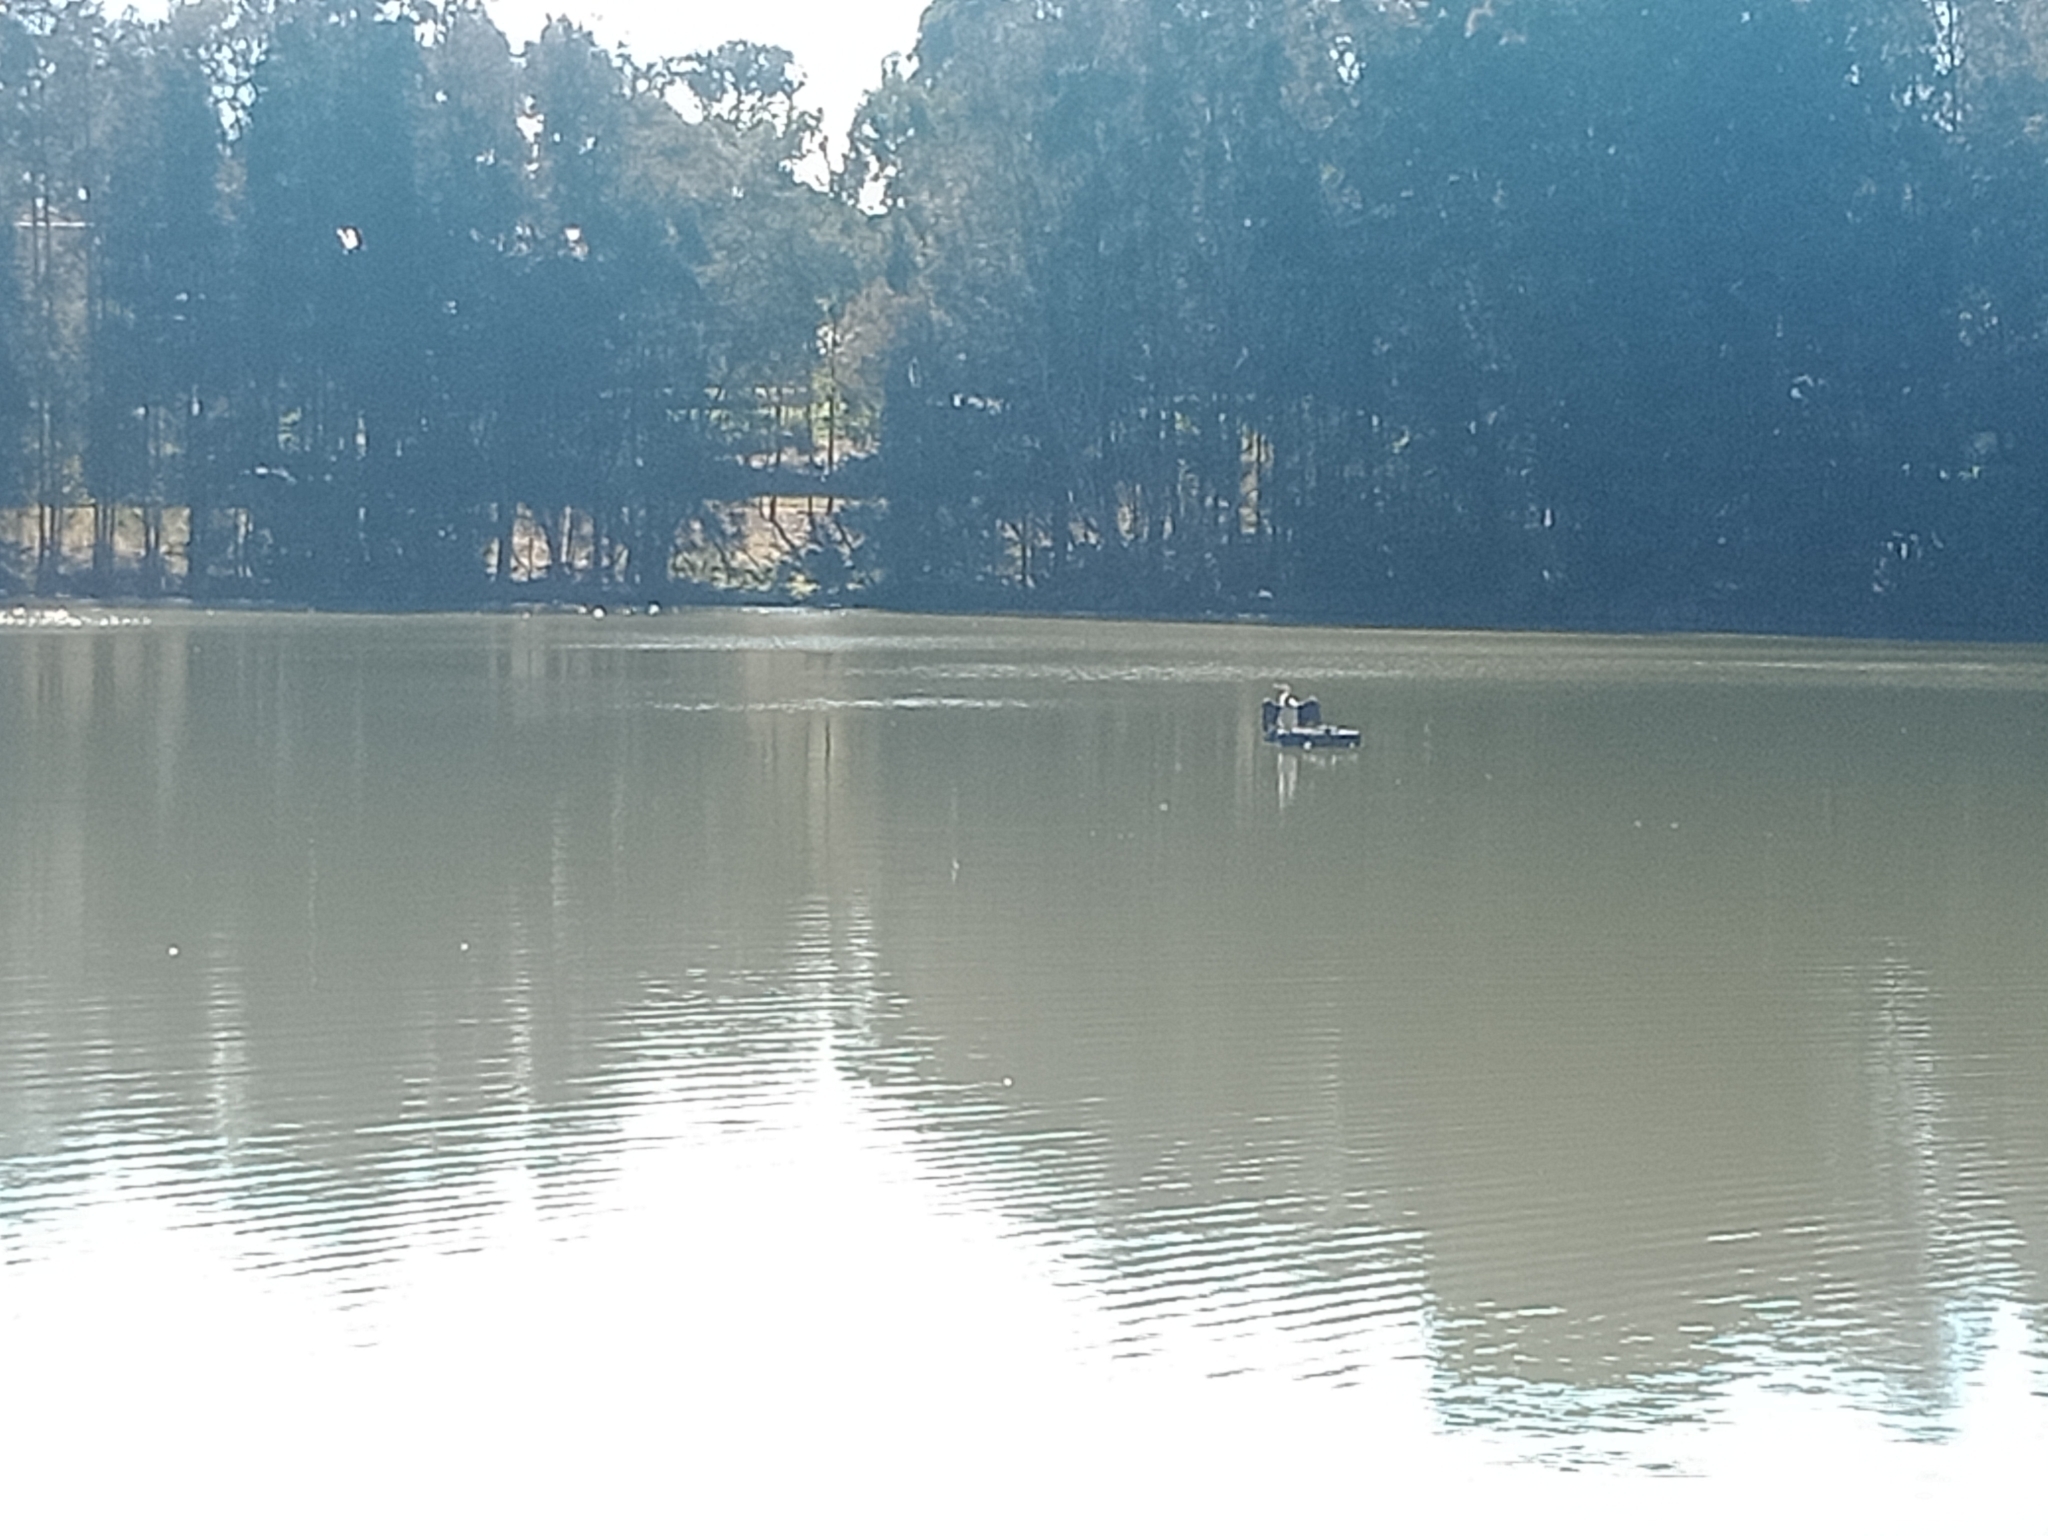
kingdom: Animalia
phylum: Chordata
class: Aves
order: Suliformes
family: Anhingidae
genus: Anhinga
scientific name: Anhinga novaehollandiae
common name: Australasian darter
